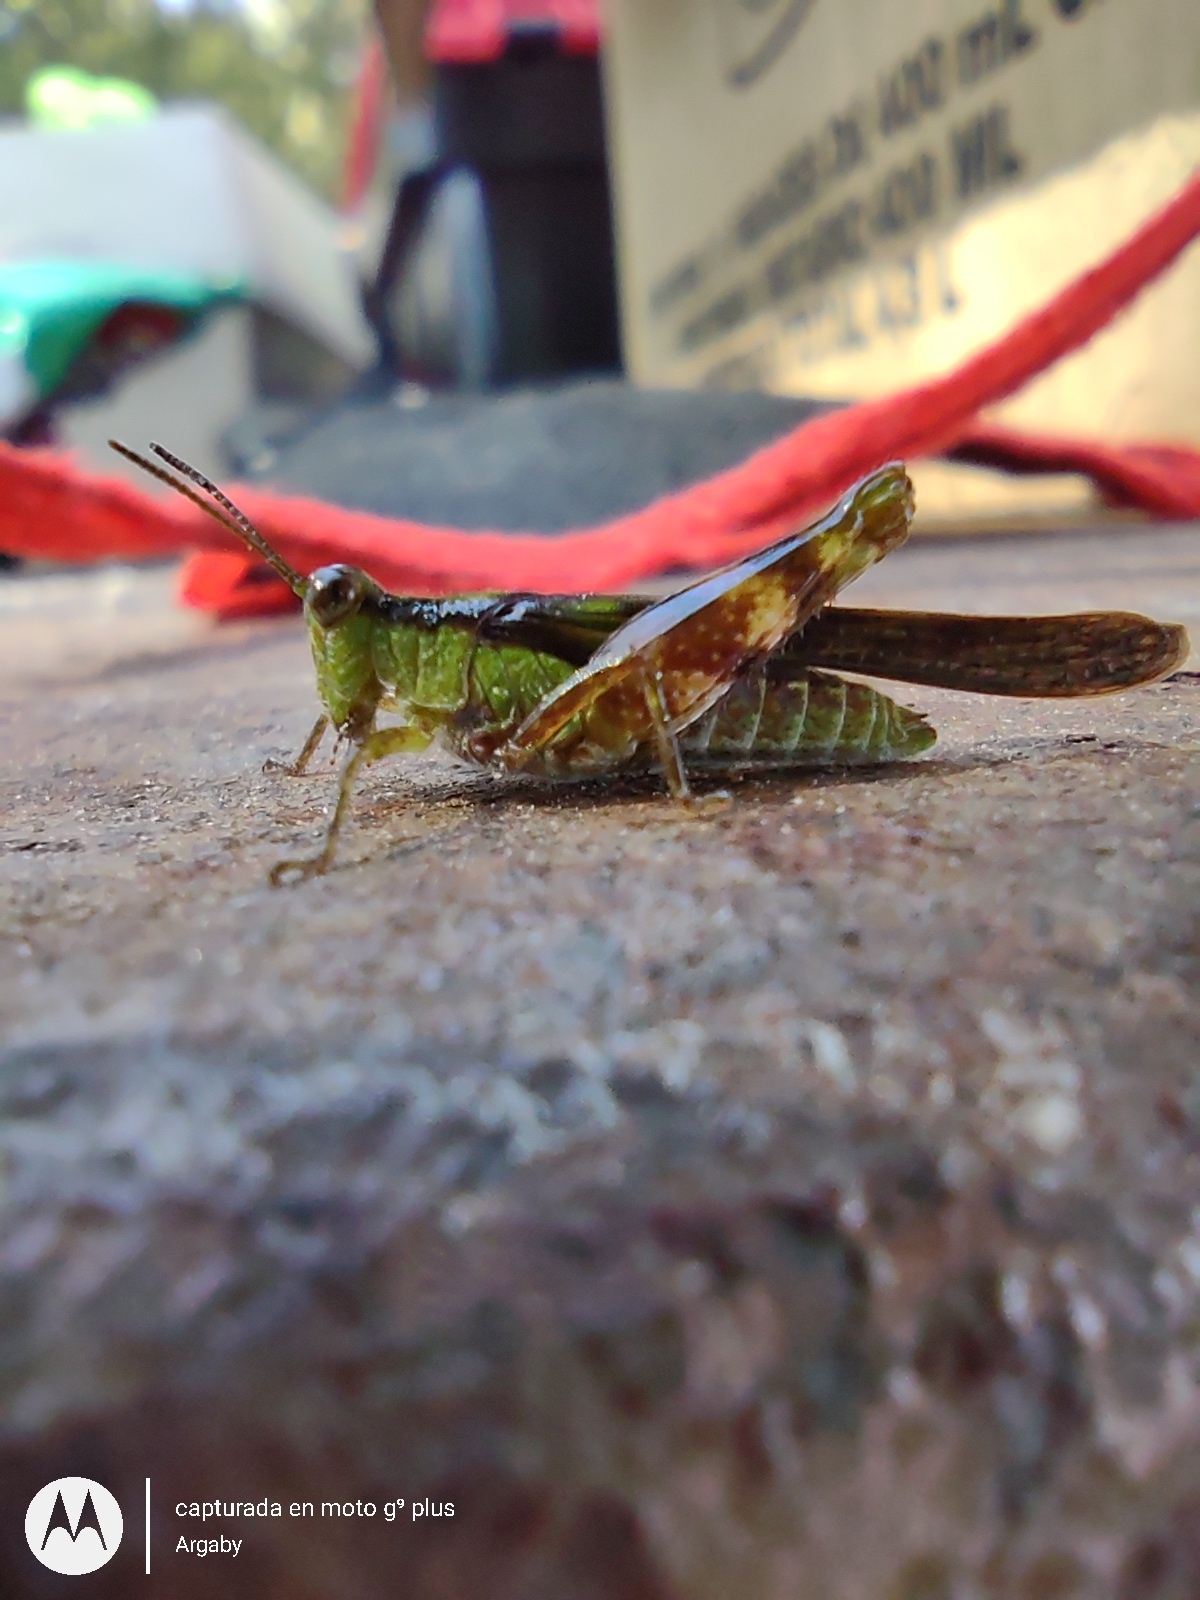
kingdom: Animalia
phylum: Arthropoda
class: Insecta
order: Orthoptera
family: Acrididae
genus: Paulinia
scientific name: Paulinia acuminata
